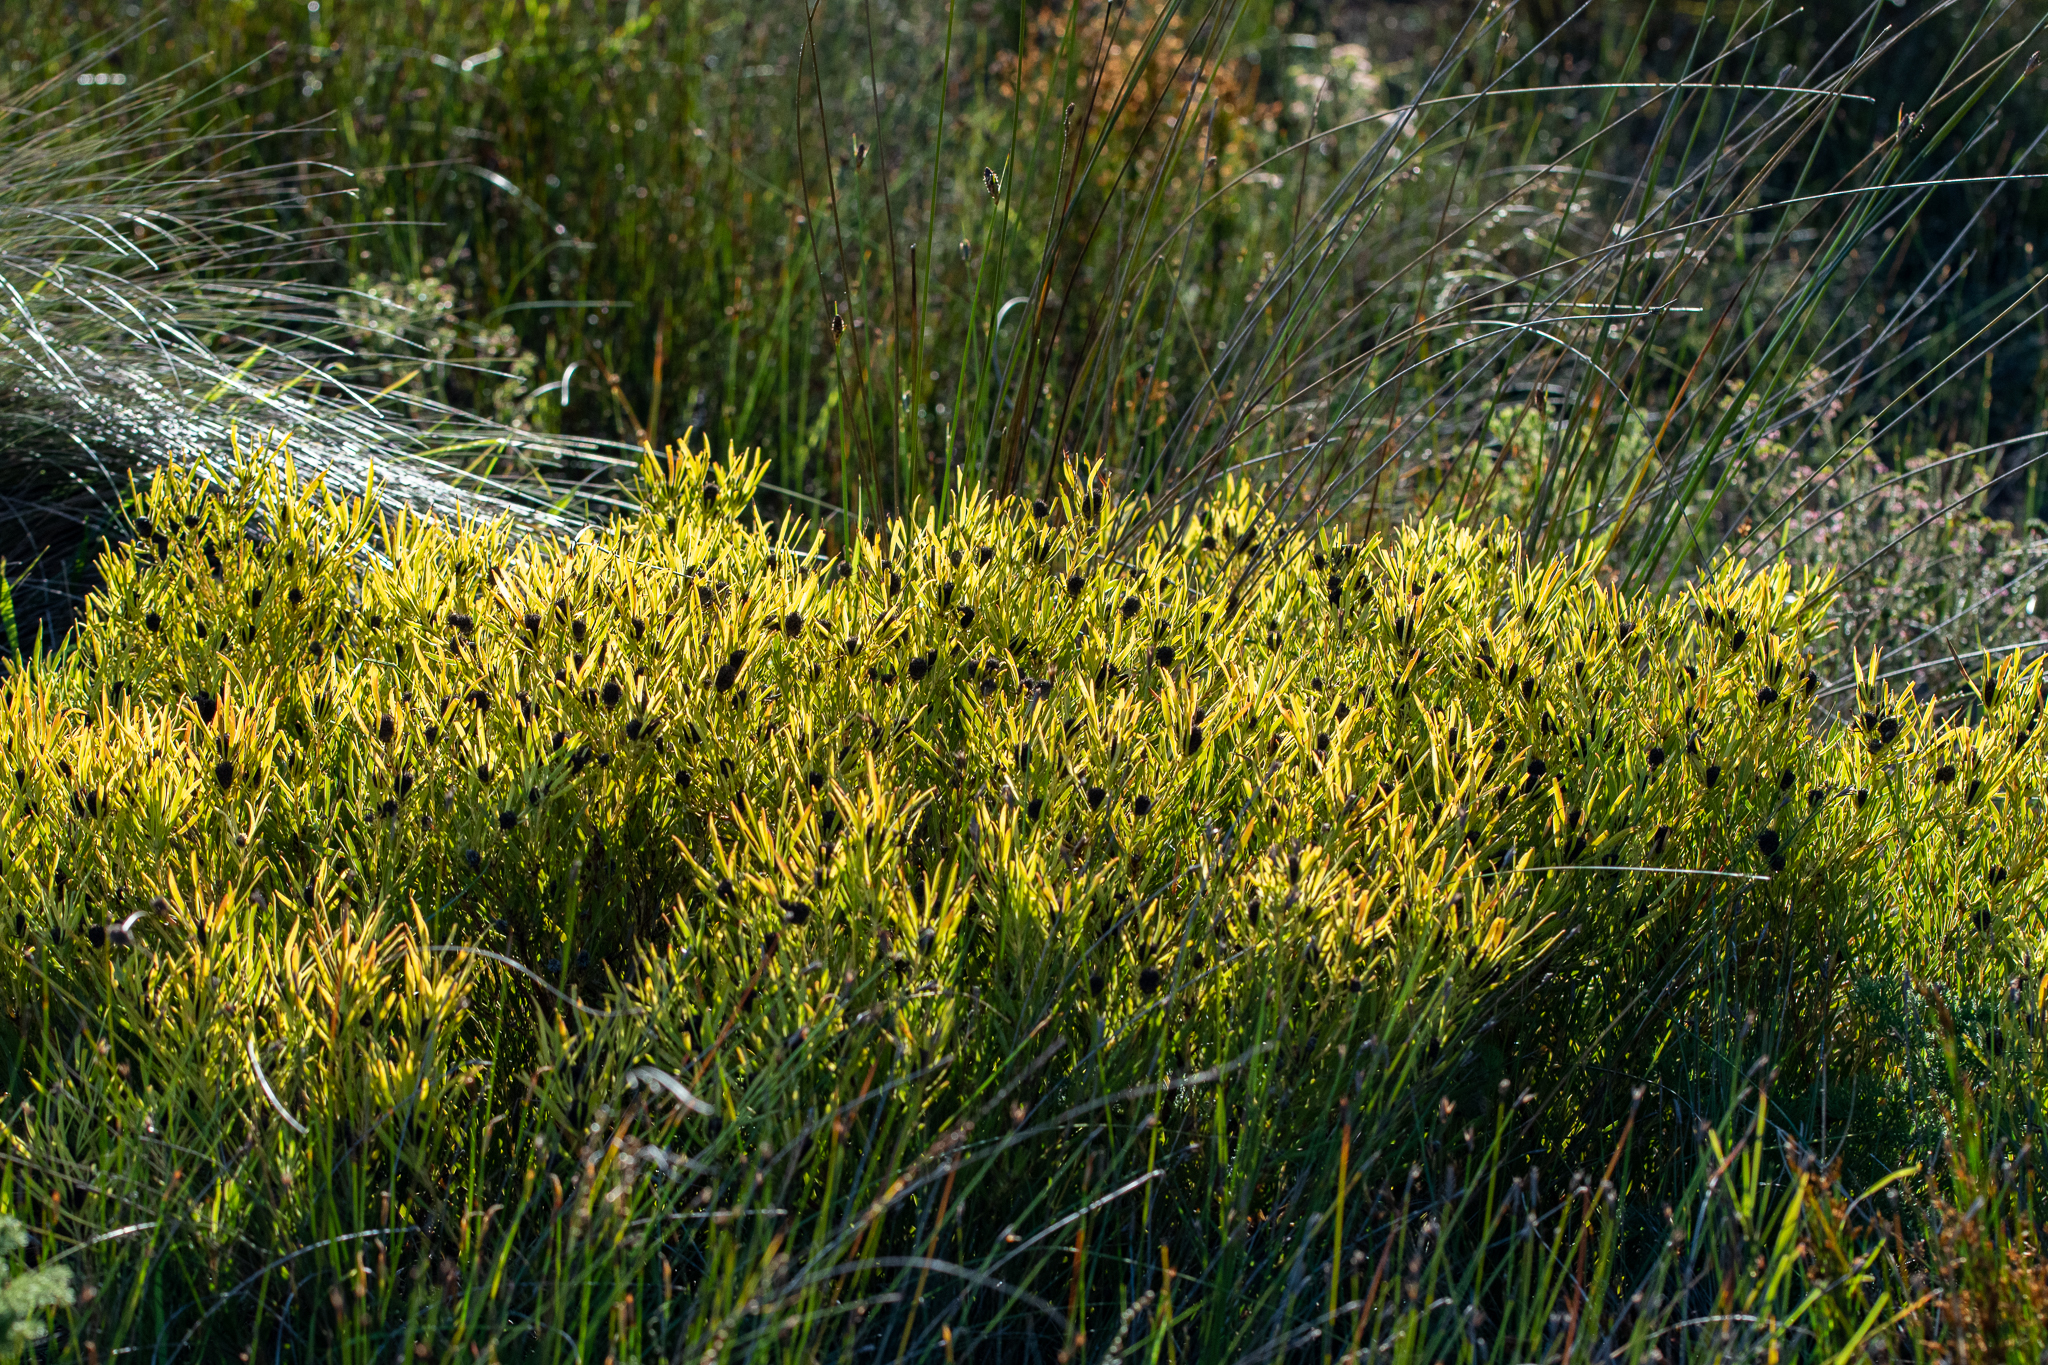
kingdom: Plantae
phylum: Tracheophyta
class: Magnoliopsida
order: Proteales
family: Proteaceae
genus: Leucadendron
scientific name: Leucadendron salignum
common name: Common sunshine conebush
